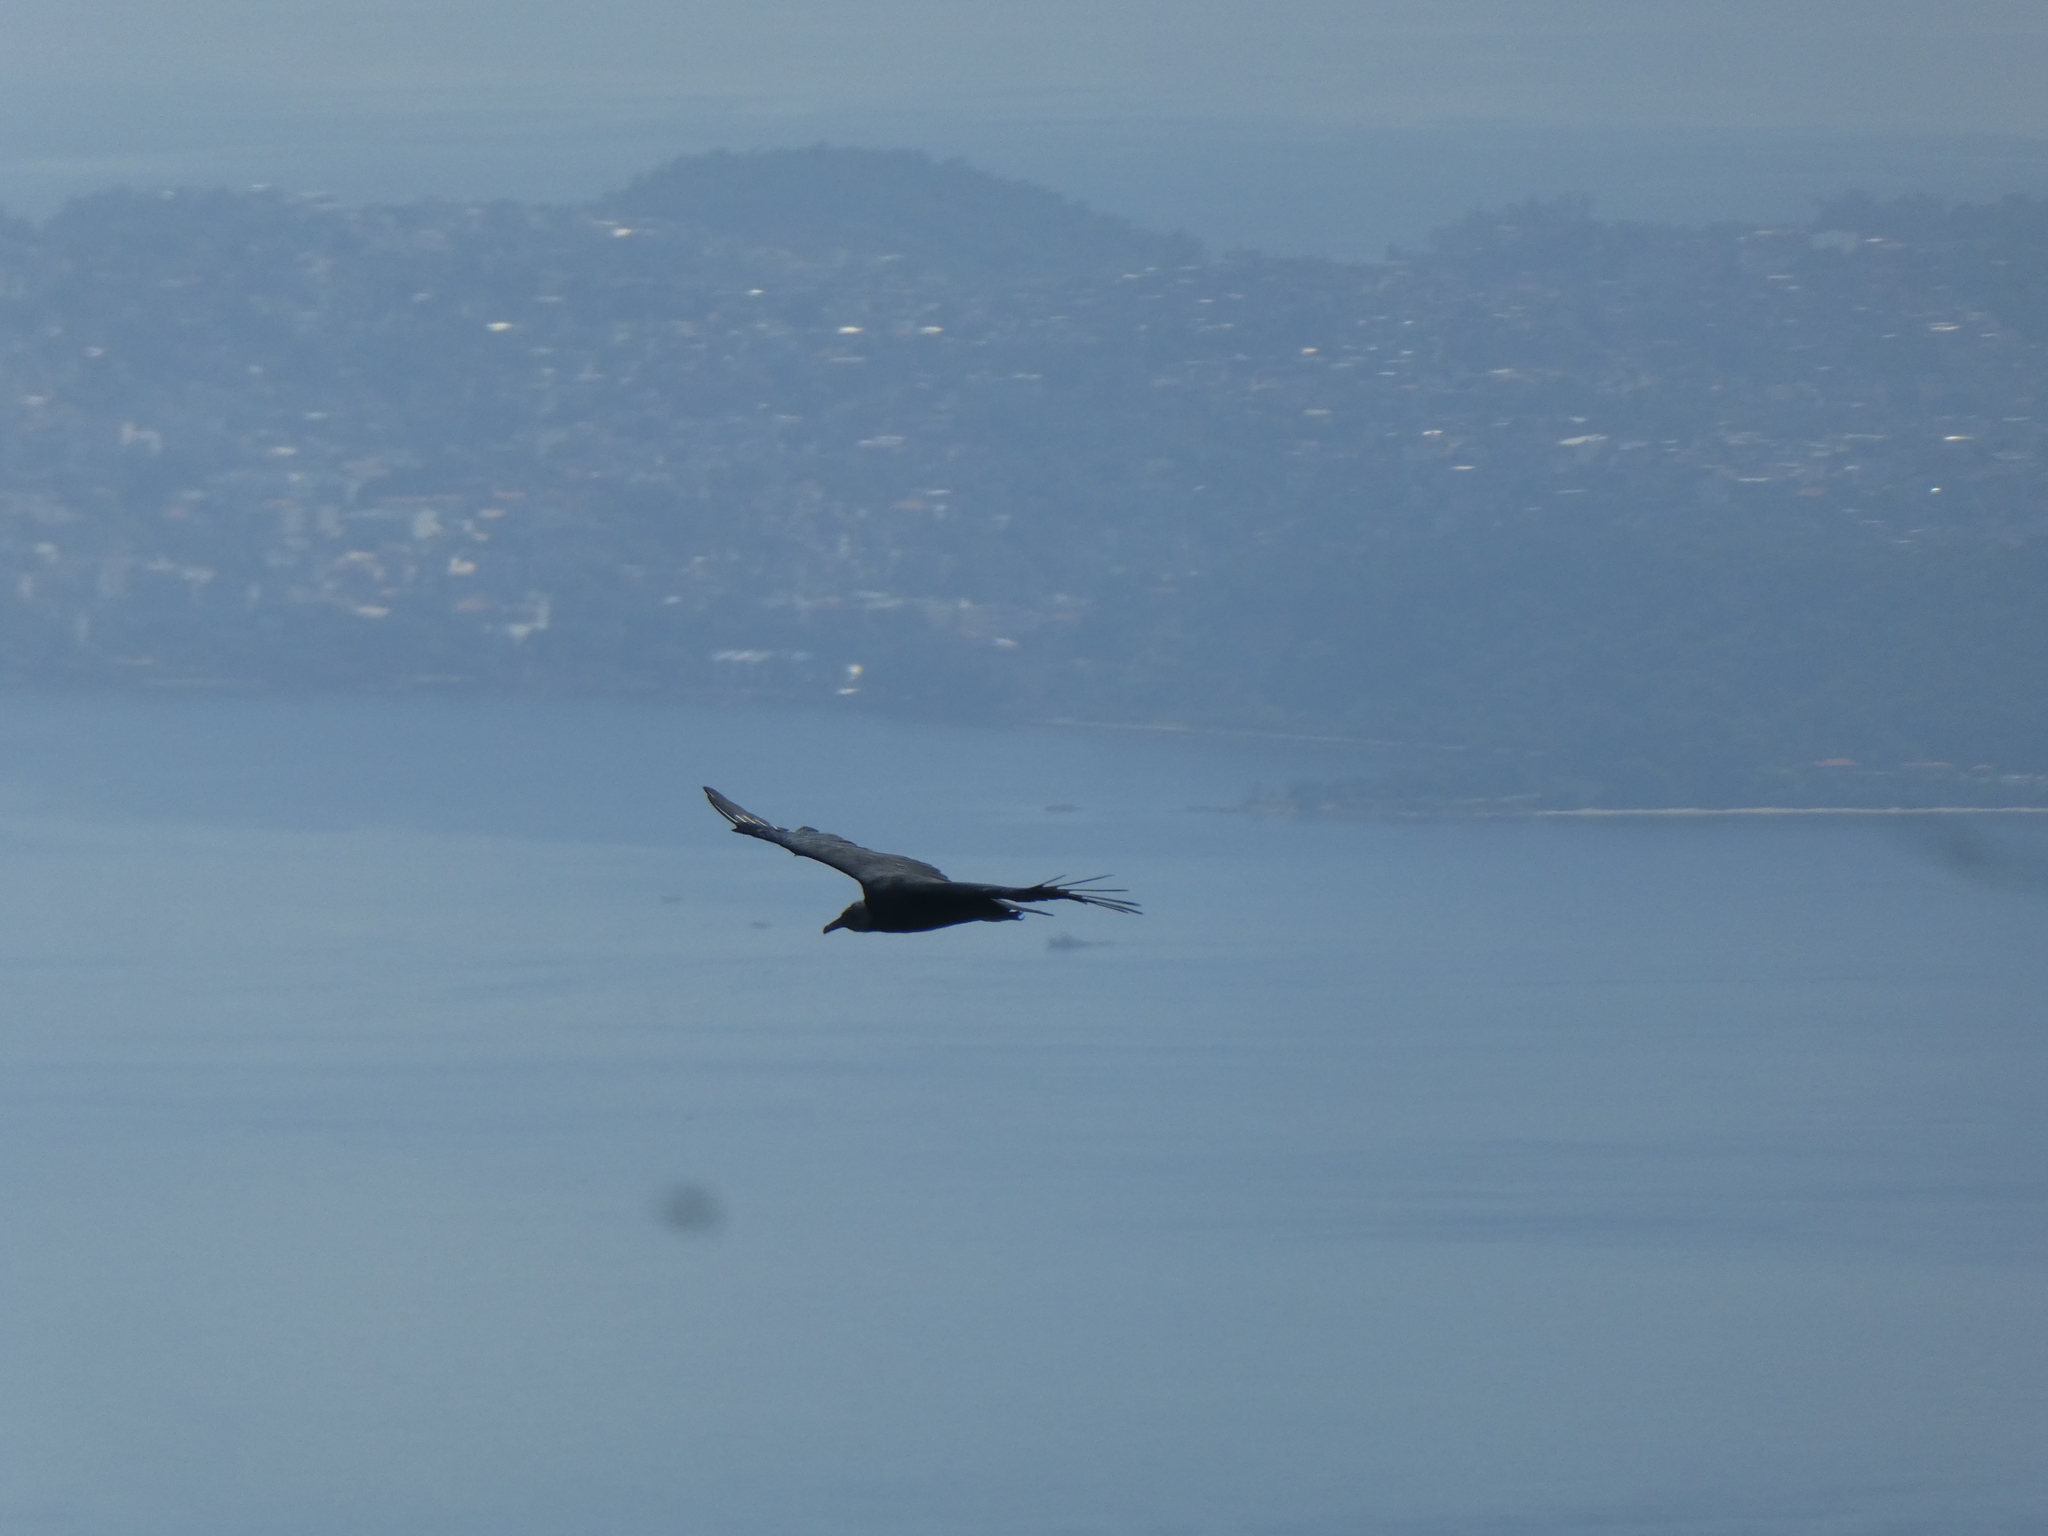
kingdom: Animalia
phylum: Chordata
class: Aves
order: Accipitriformes
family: Cathartidae
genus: Coragyps
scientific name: Coragyps atratus
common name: Black vulture
